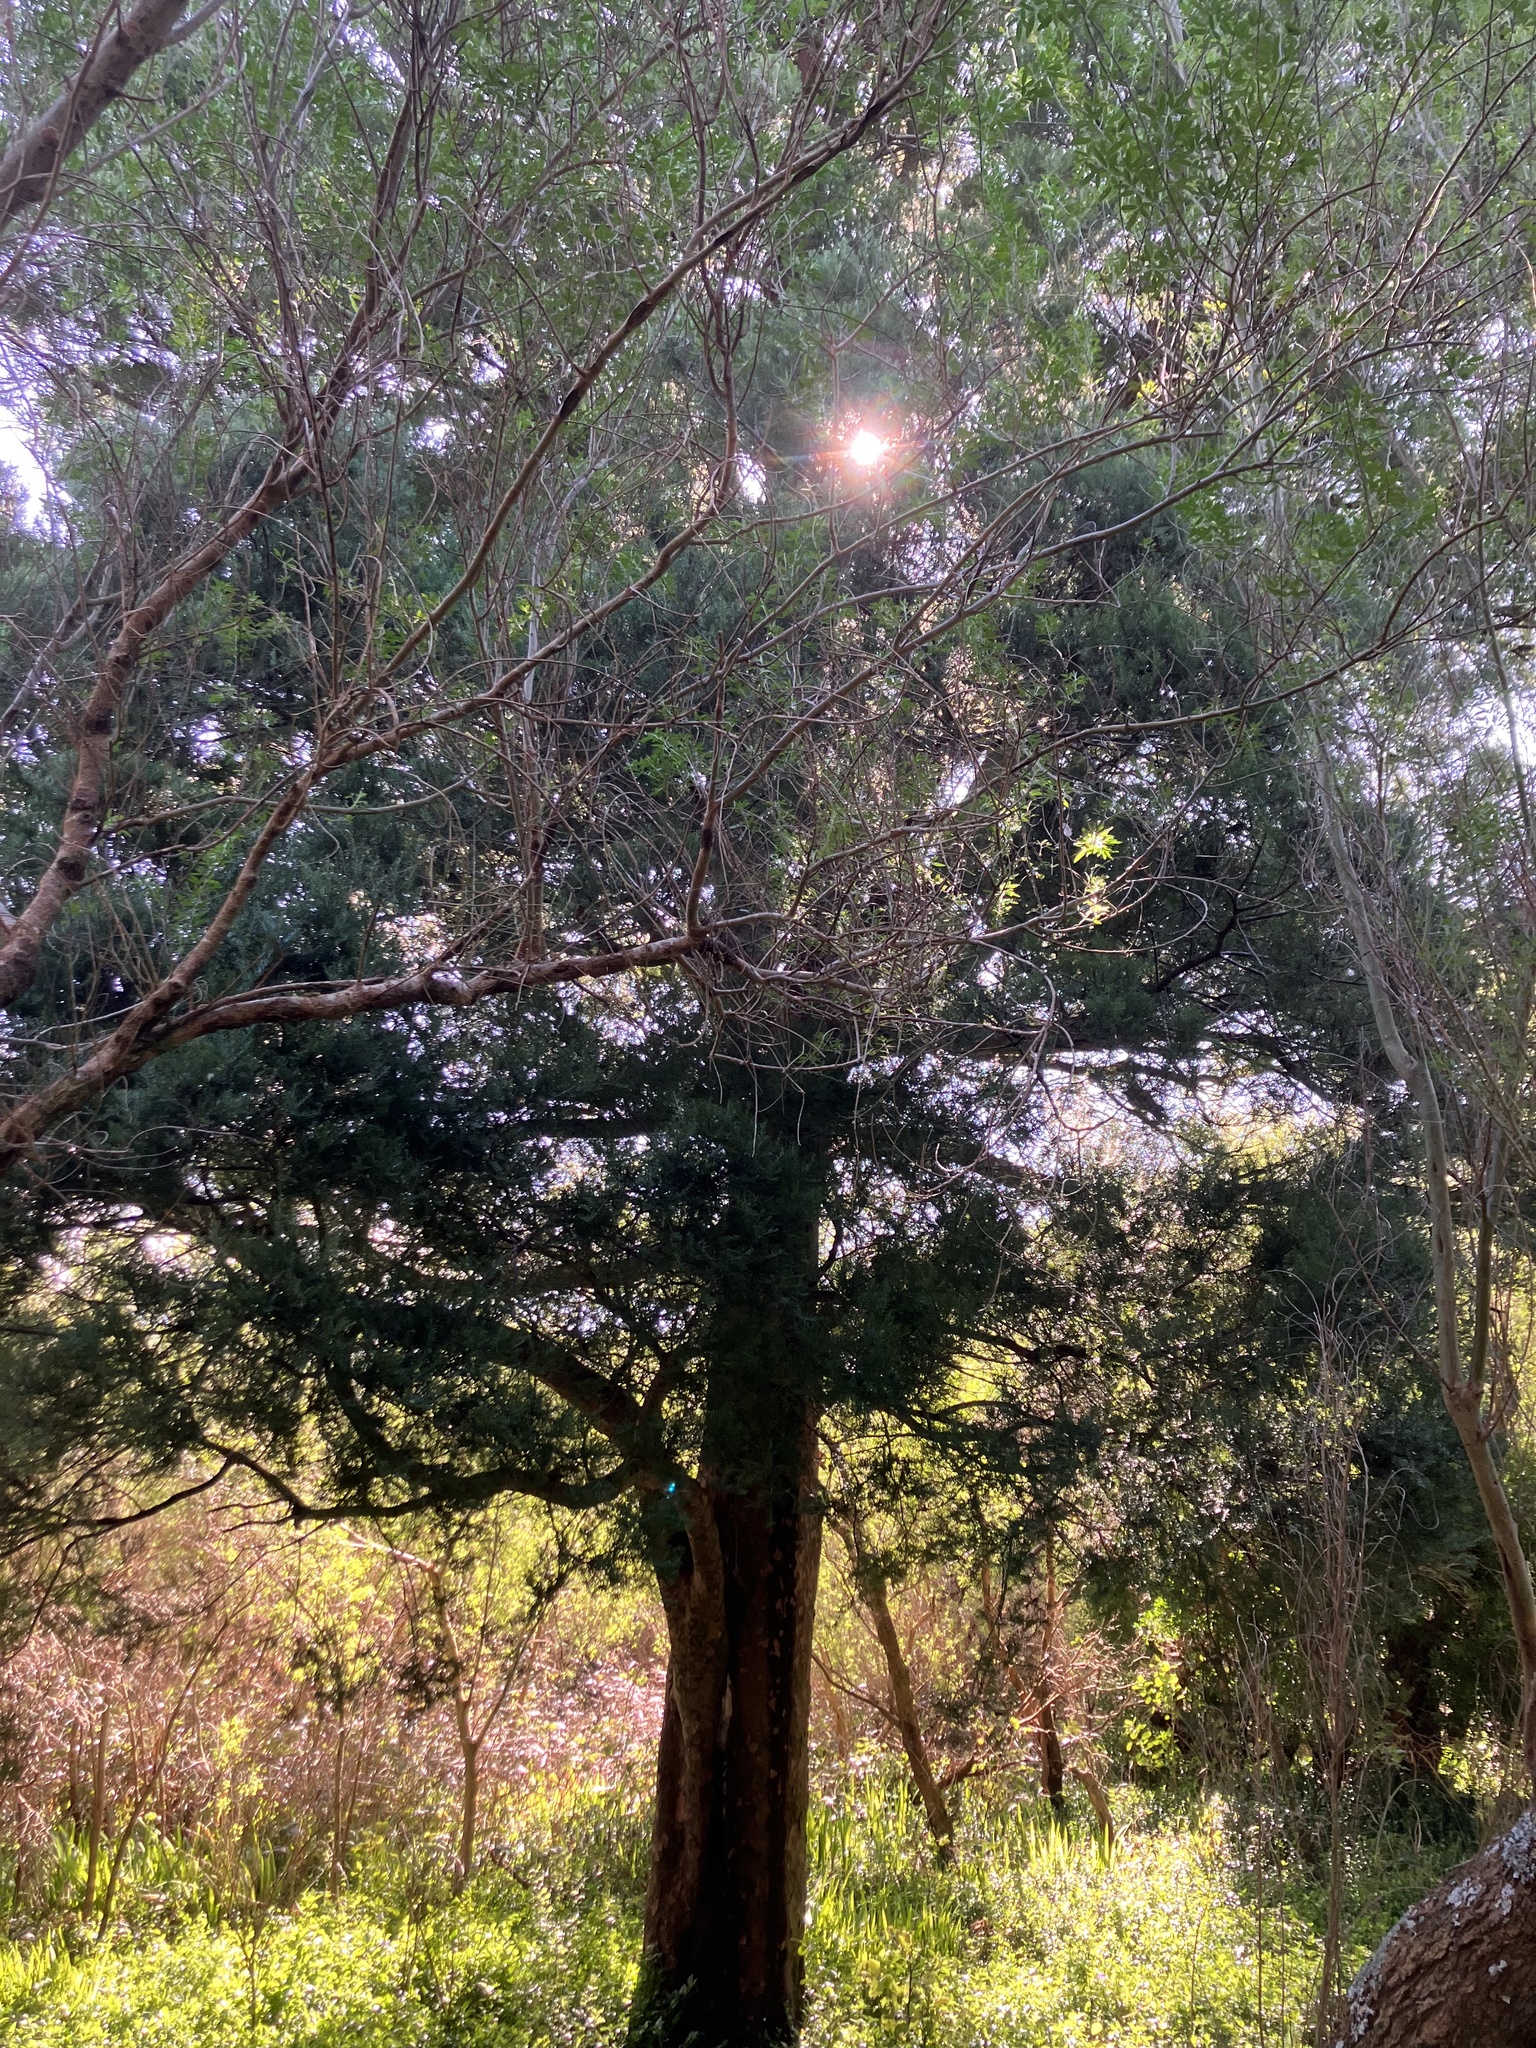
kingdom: Plantae
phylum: Tracheophyta
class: Pinopsida
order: Pinales
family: Podocarpaceae
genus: Prumnopitys
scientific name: Prumnopitys taxifolia
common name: Matai
